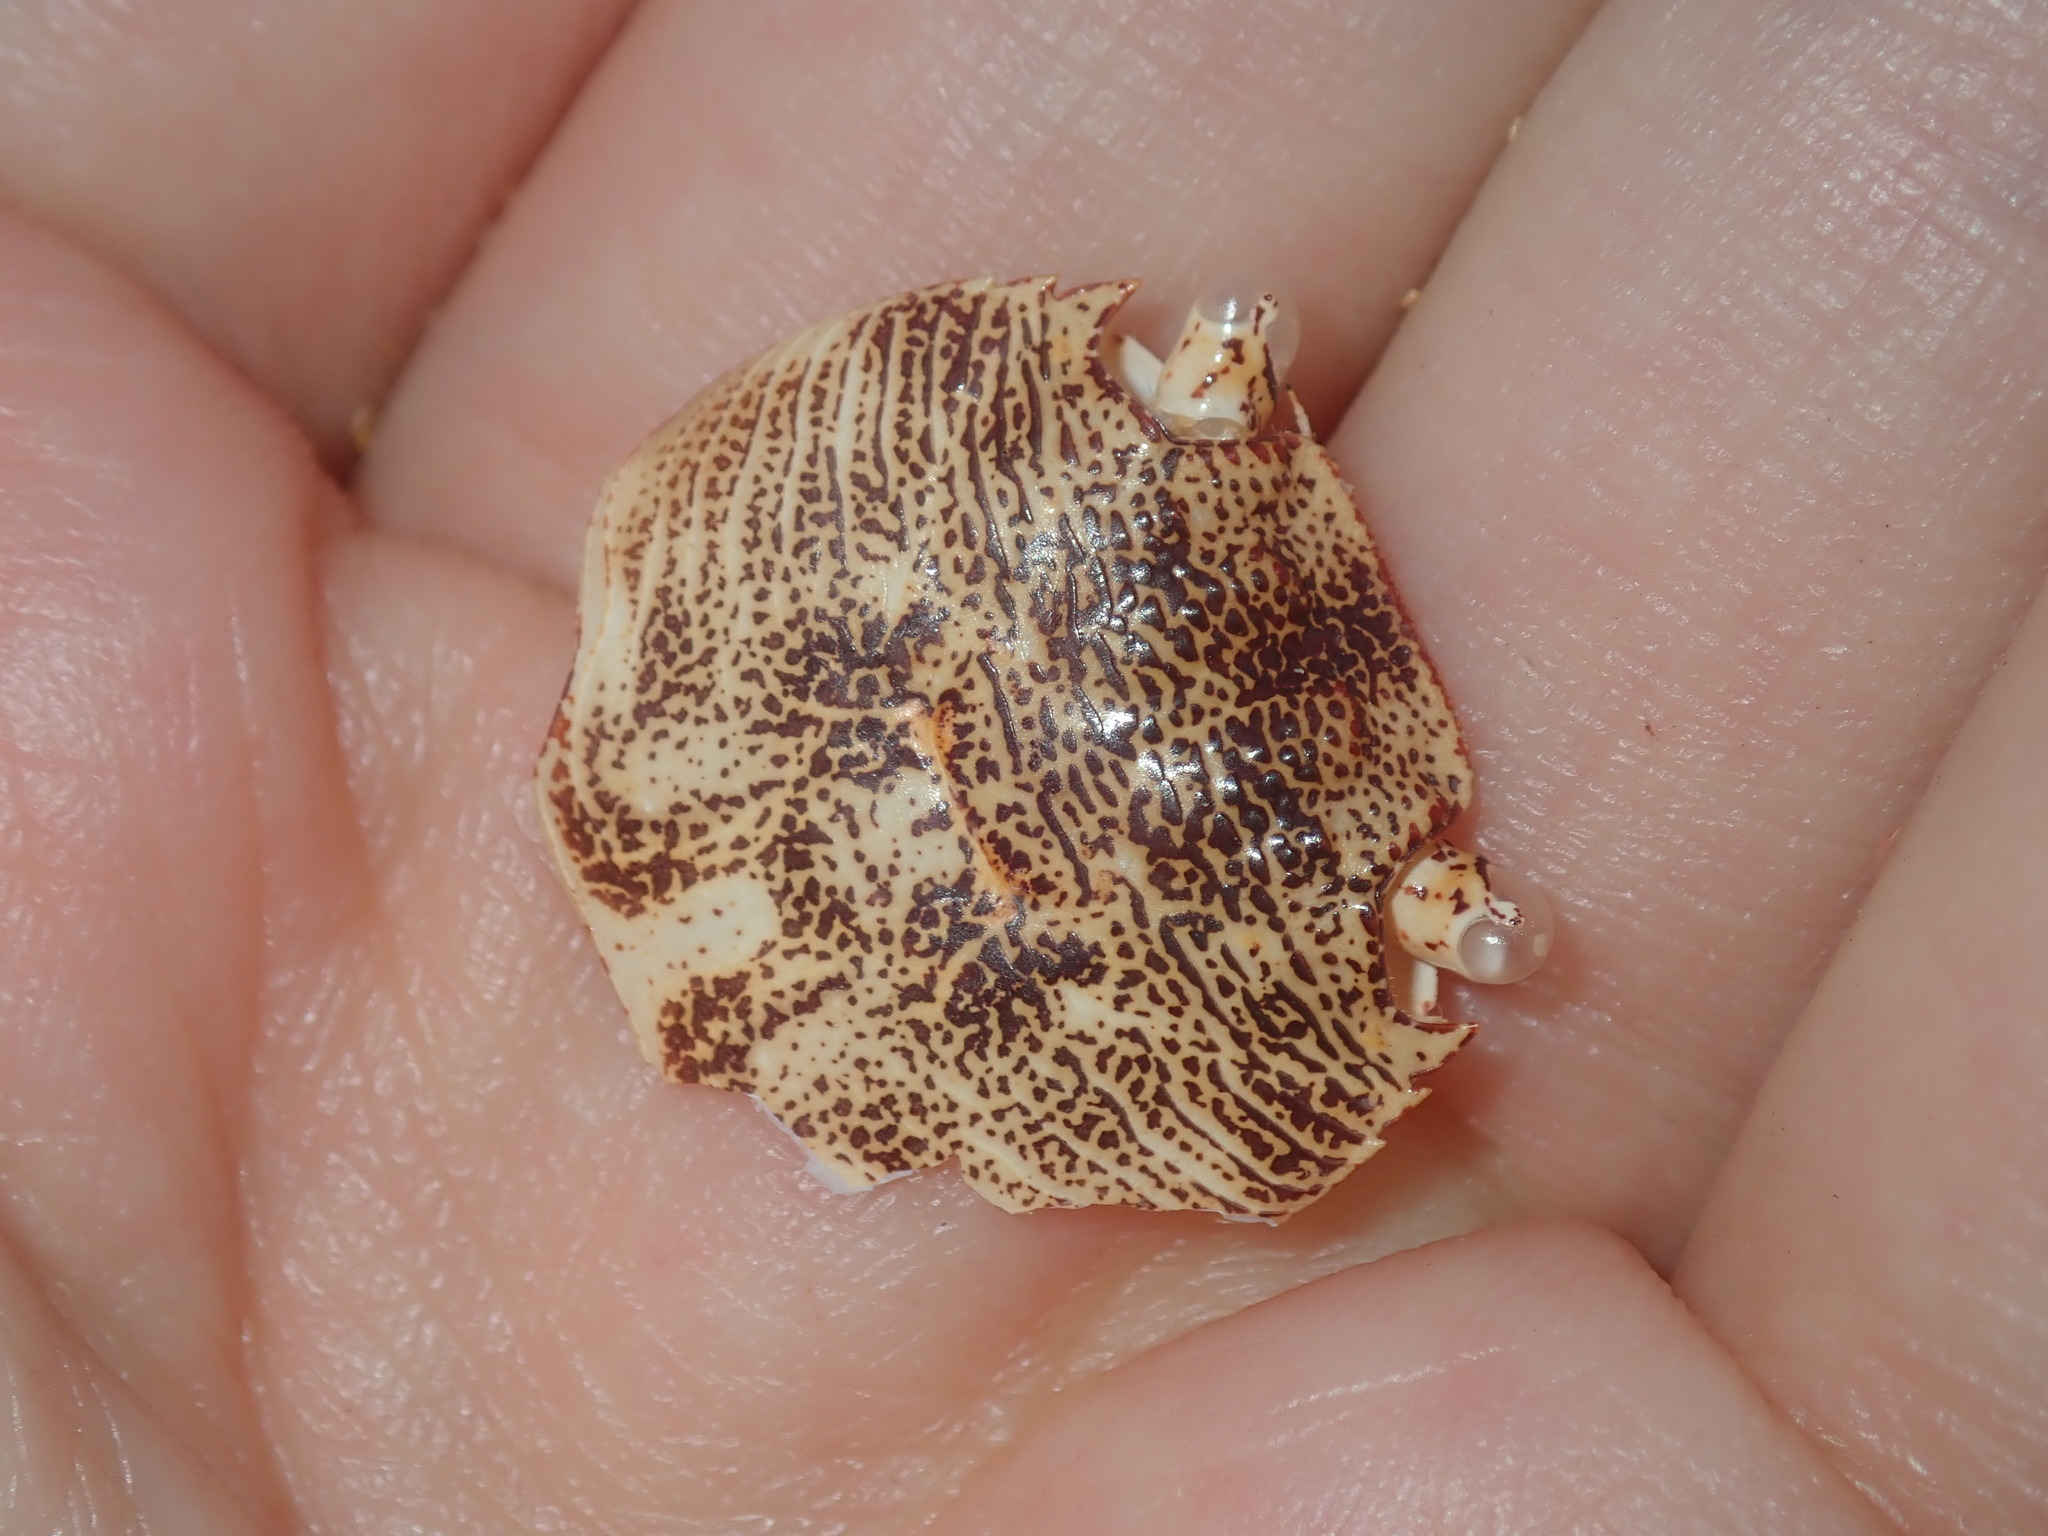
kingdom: Animalia
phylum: Arthropoda
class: Malacostraca
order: Decapoda
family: Grapsidae
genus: Leptograpsus
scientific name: Leptograpsus variegatus
